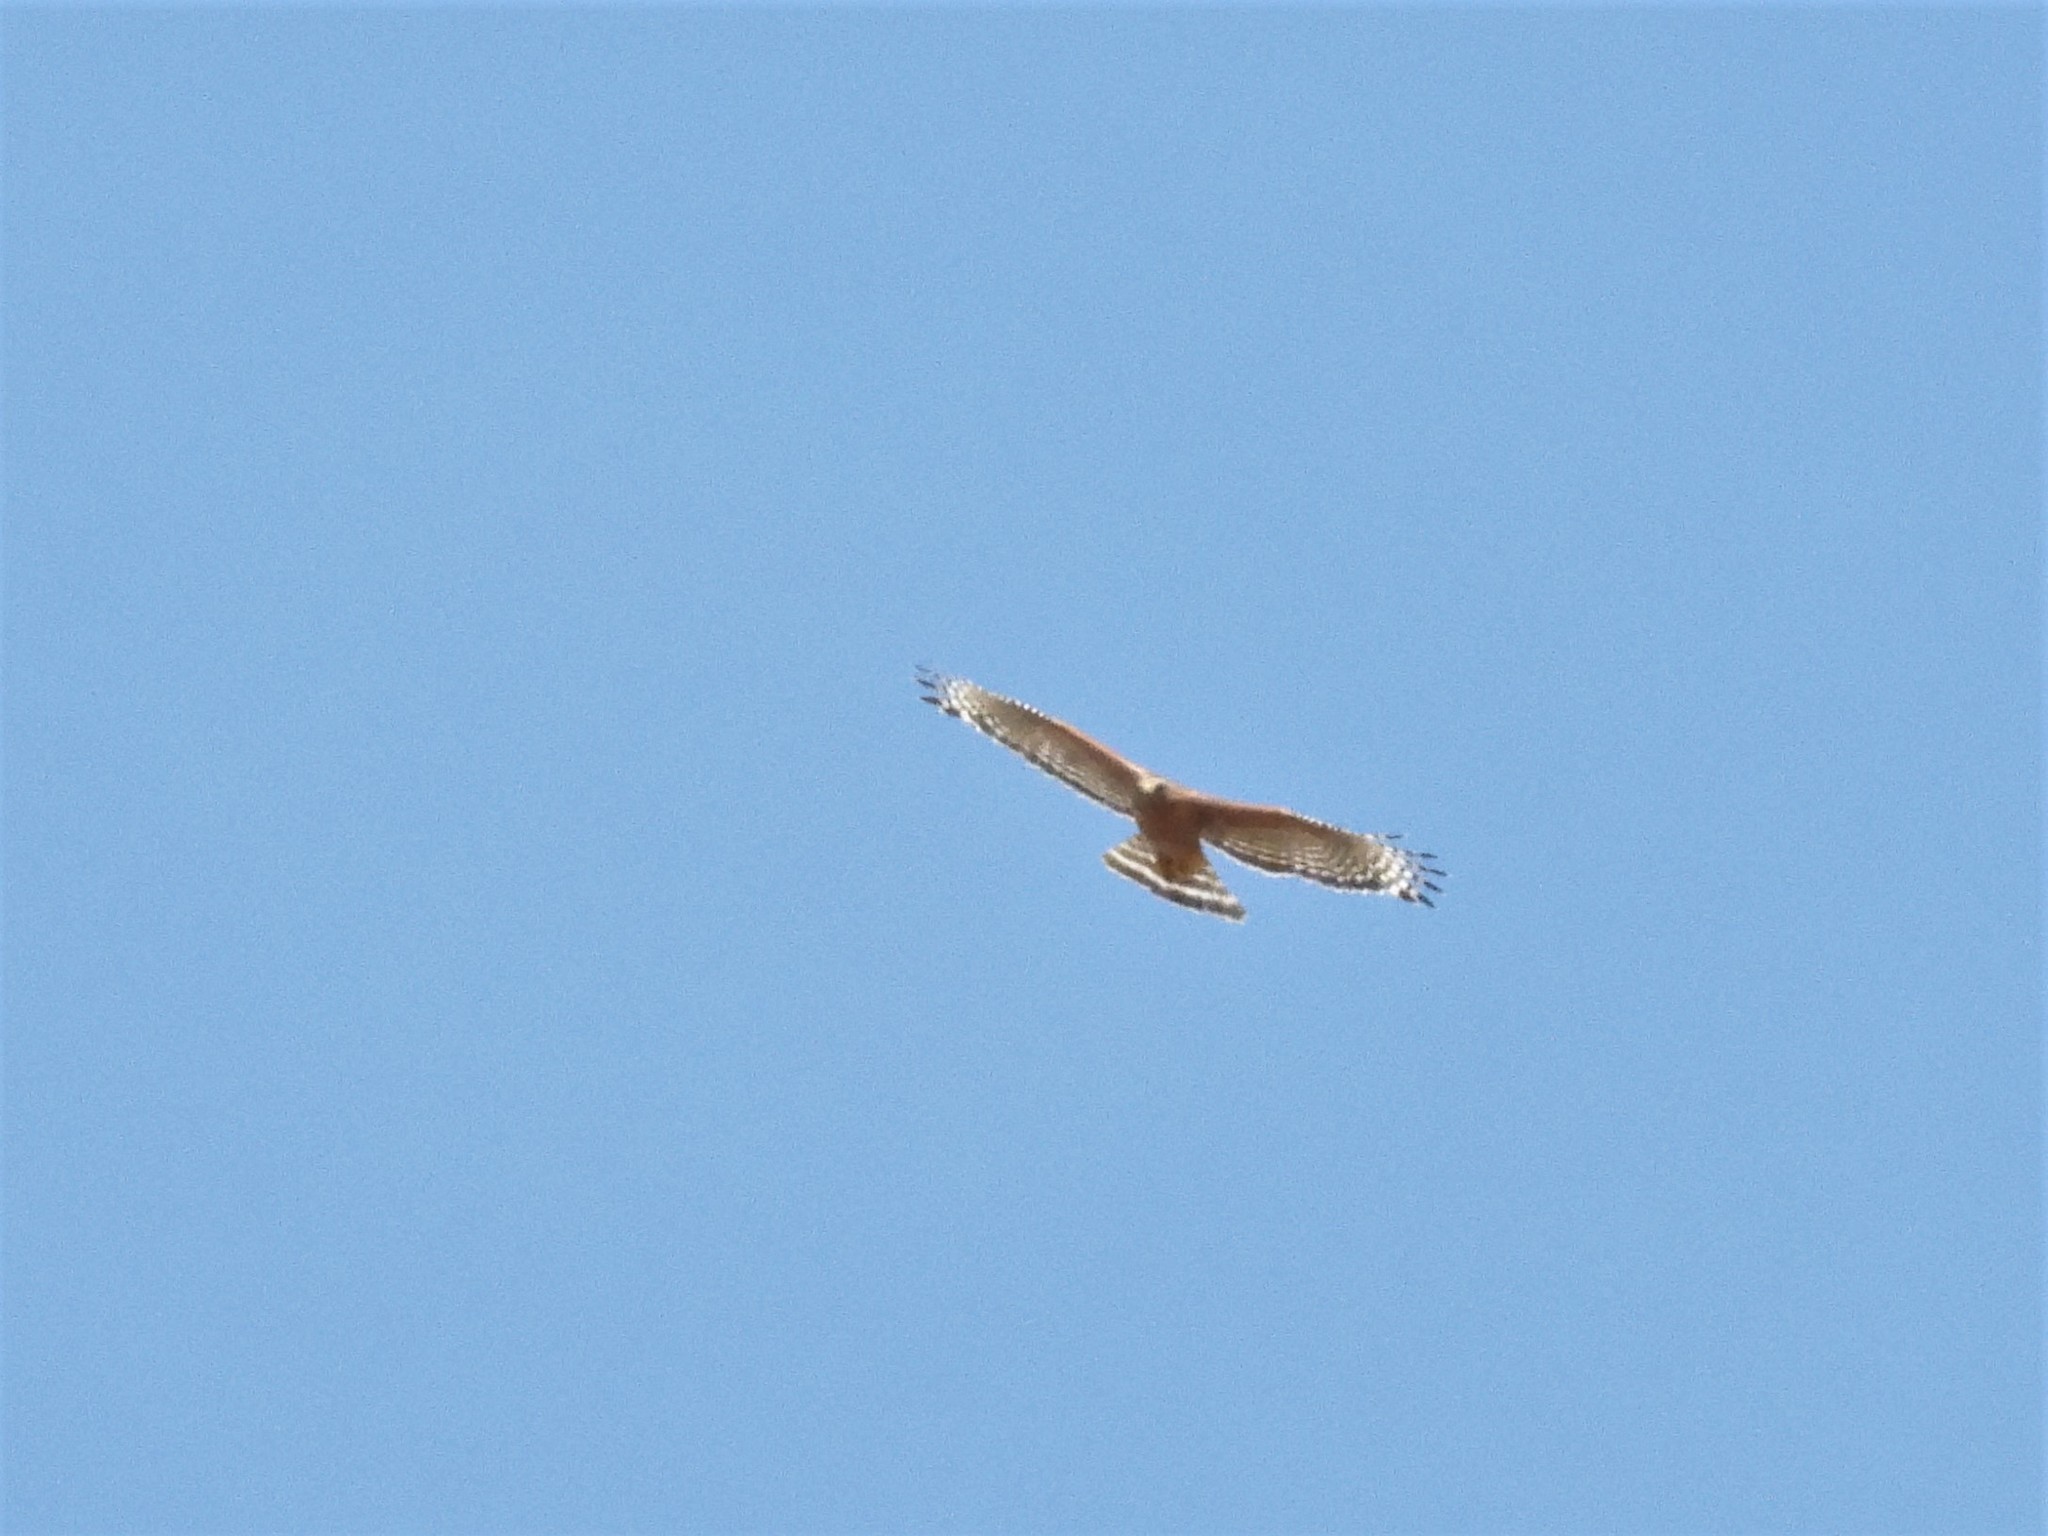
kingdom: Animalia
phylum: Chordata
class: Aves
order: Accipitriformes
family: Accipitridae
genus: Buteo
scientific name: Buteo lineatus
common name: Red-shouldered hawk
